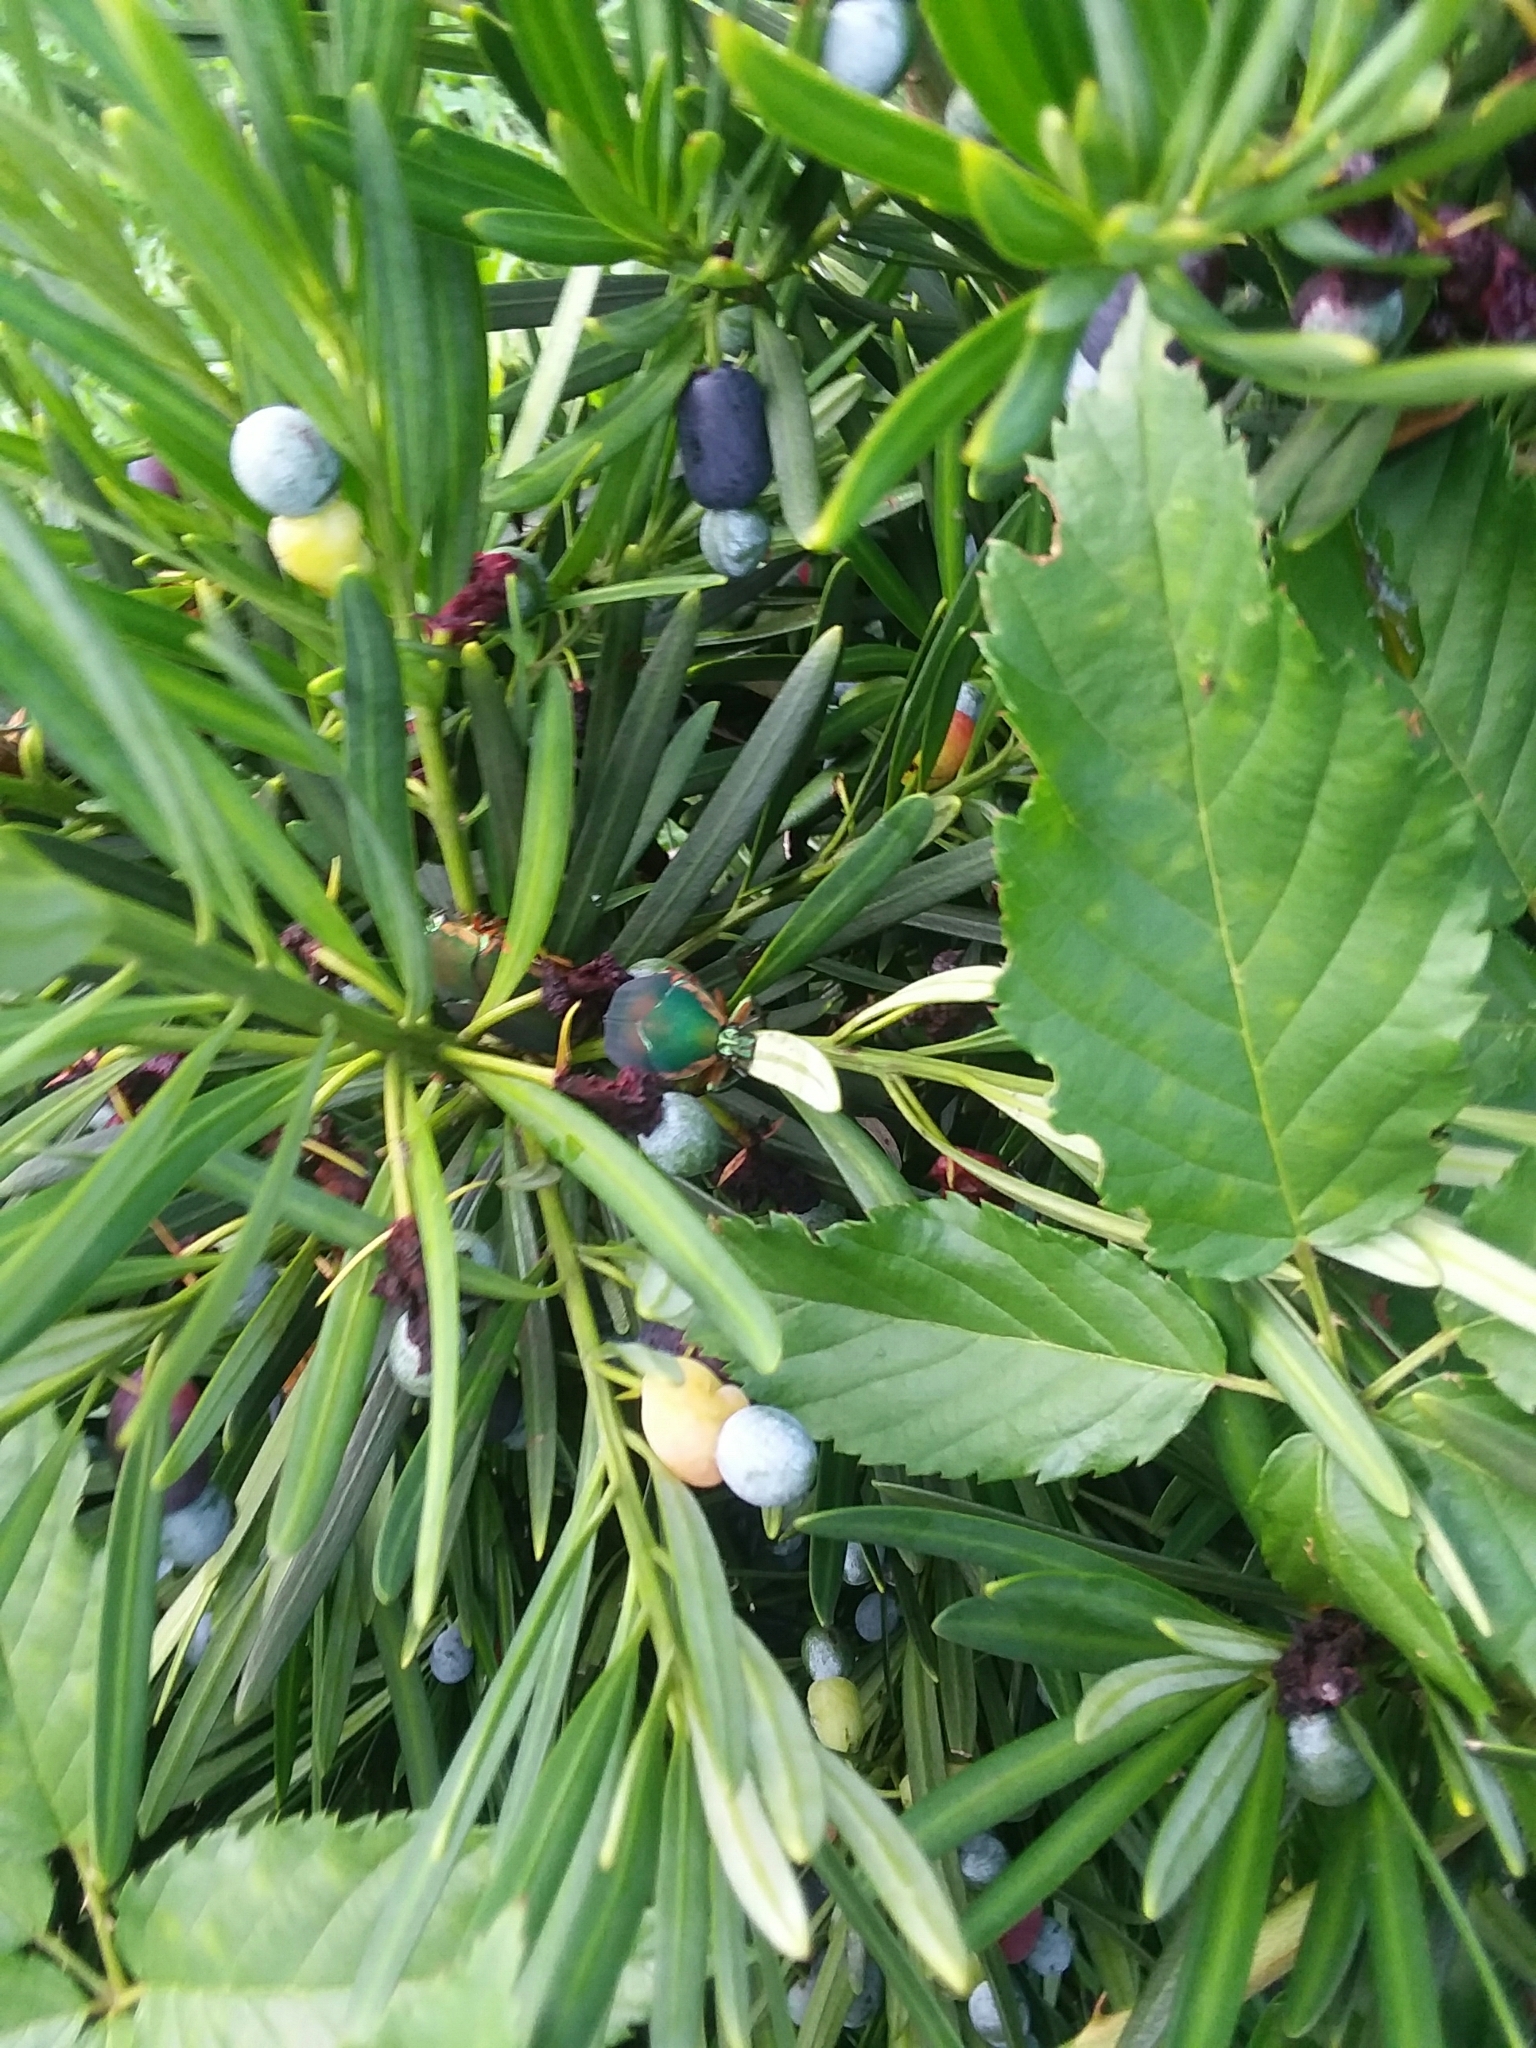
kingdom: Animalia
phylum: Arthropoda
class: Insecta
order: Coleoptera
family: Scarabaeidae
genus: Cotinis
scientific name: Cotinis nitida
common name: Common green june beetle
